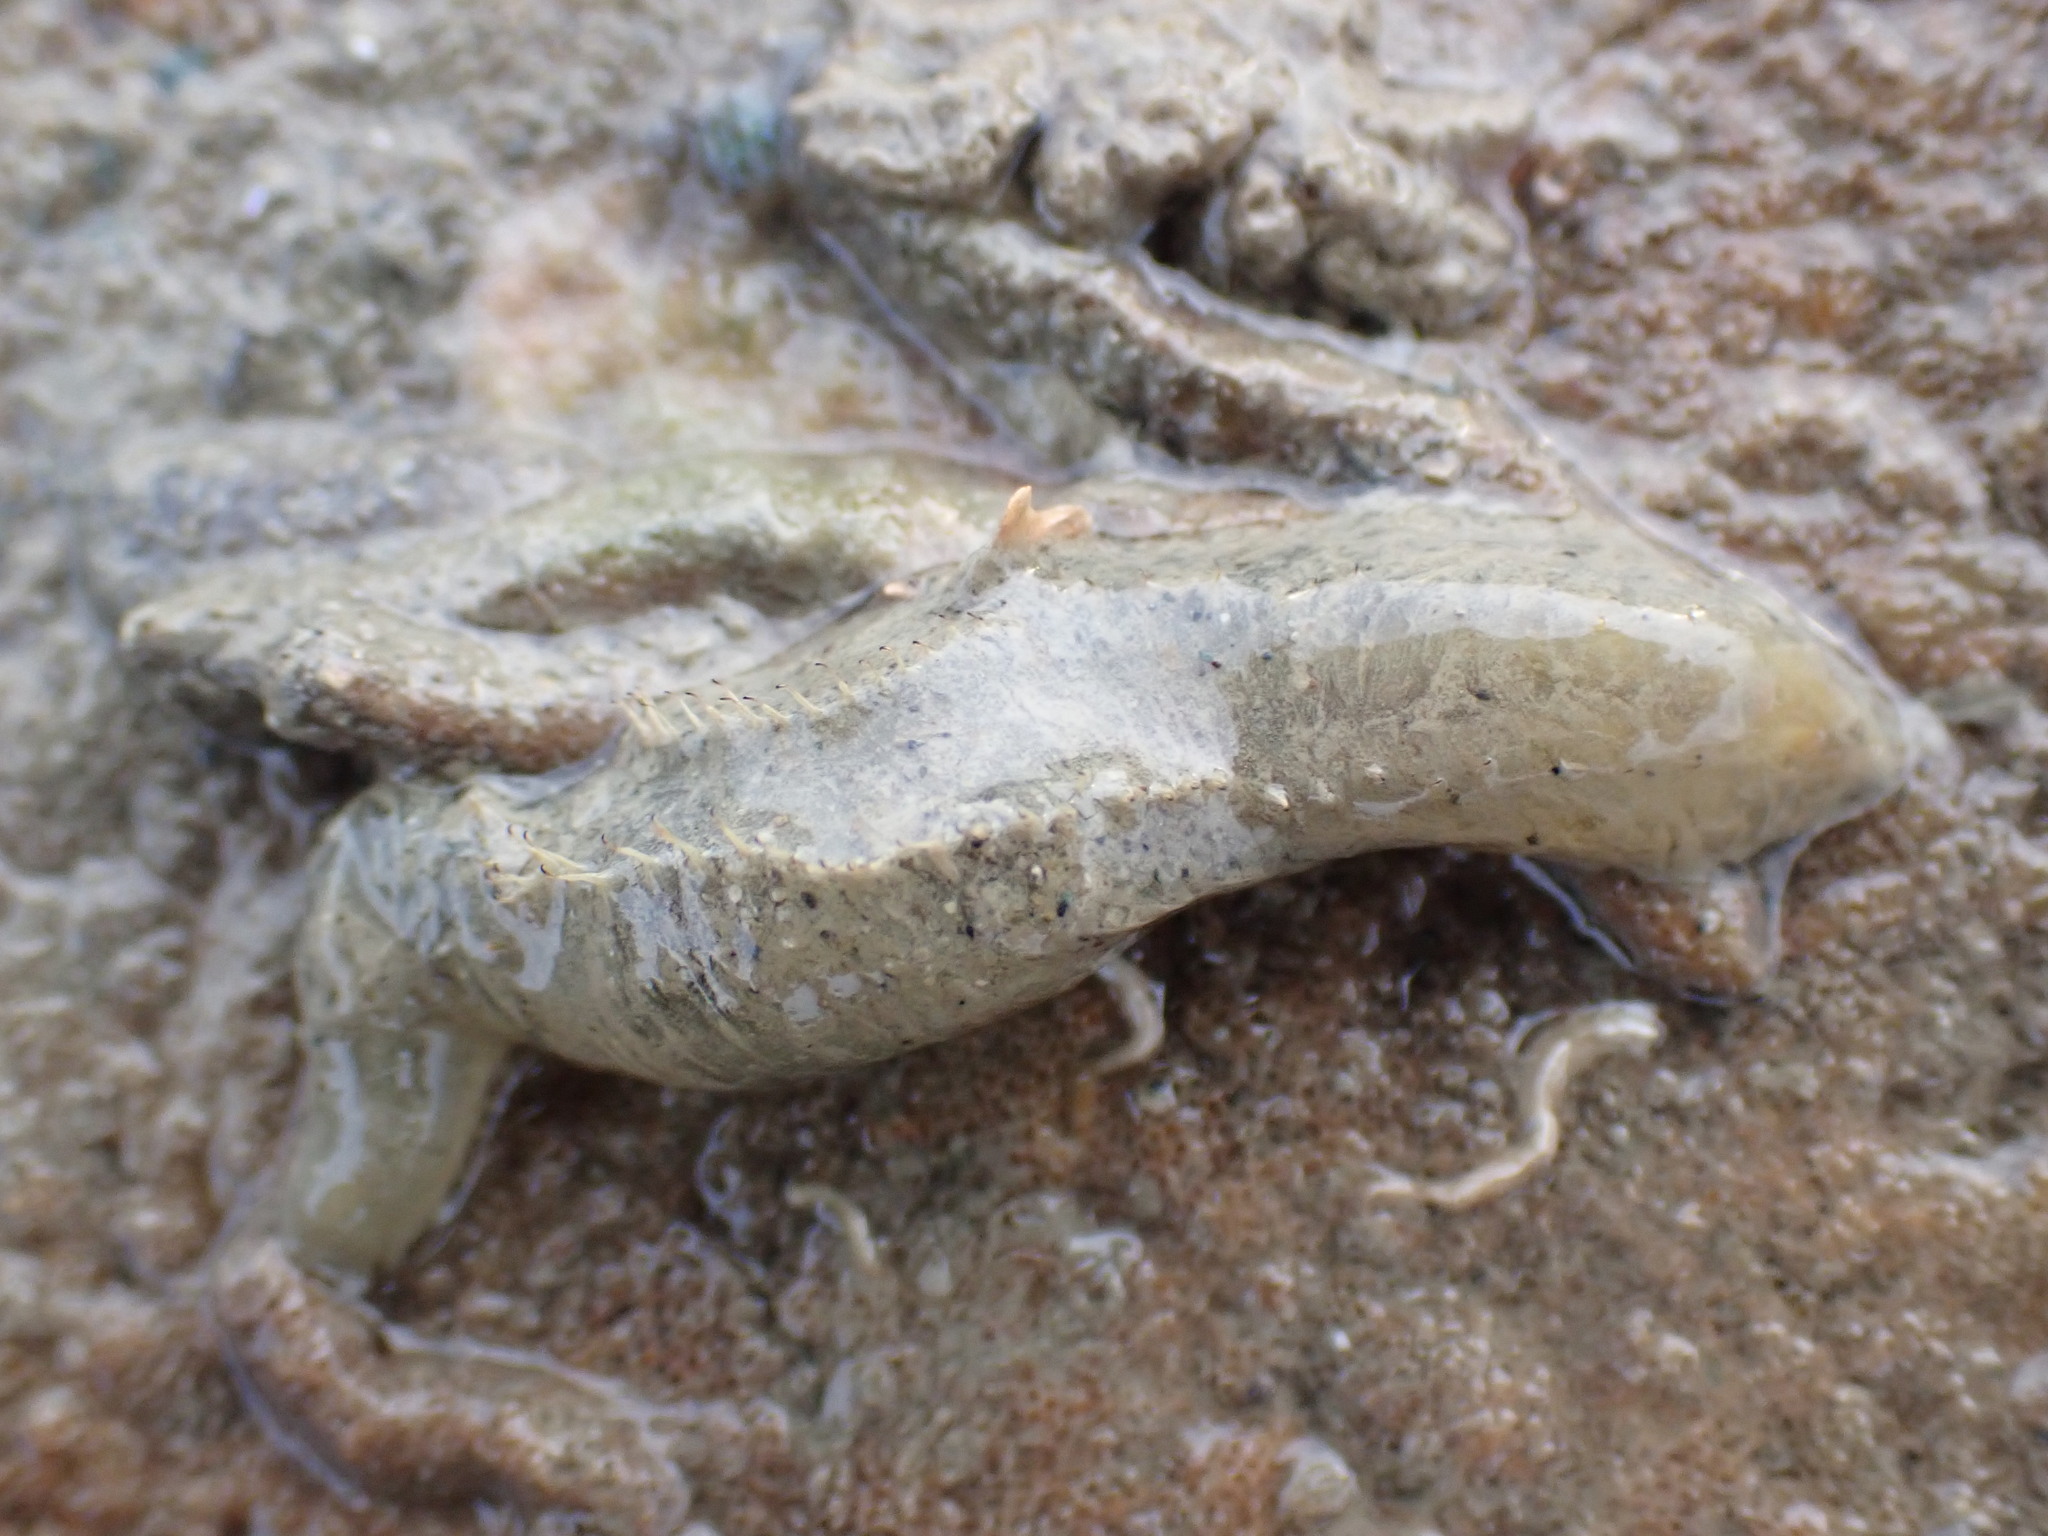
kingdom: Animalia
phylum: Annelida
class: Polychaeta
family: Flabelligeridae
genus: Flabelligera
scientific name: Flabelligera bicolor
